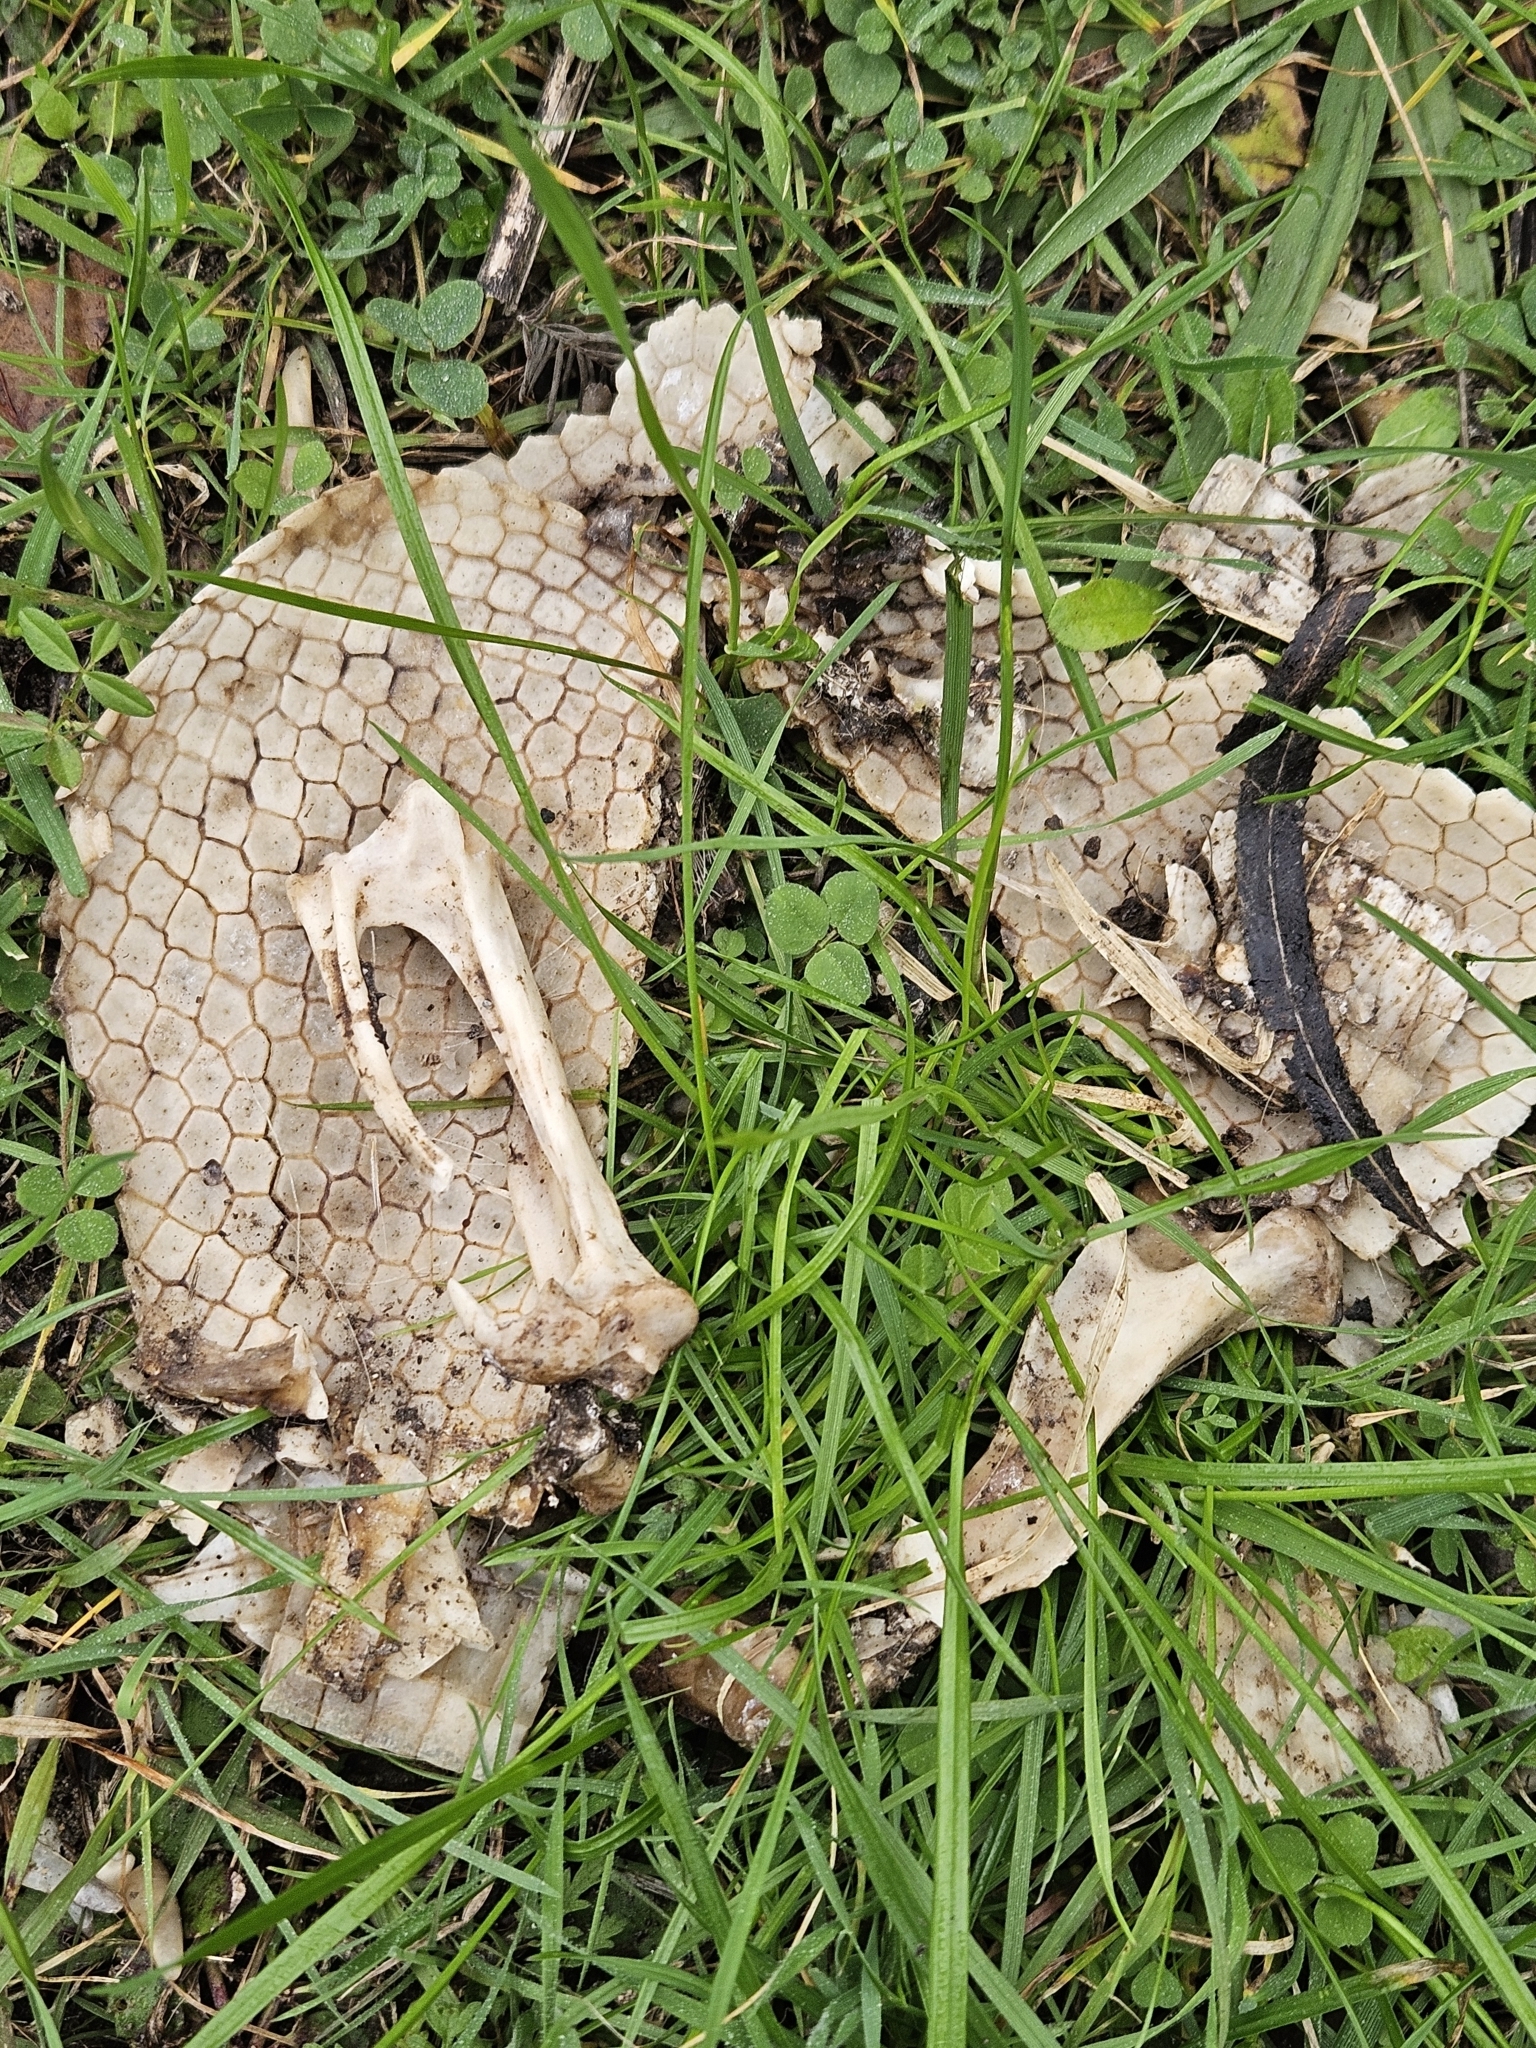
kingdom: Animalia
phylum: Chordata
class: Mammalia
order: Cingulata
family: Dasypodidae
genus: Dasypus
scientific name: Dasypus novemcinctus
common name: Nine-banded armadillo
